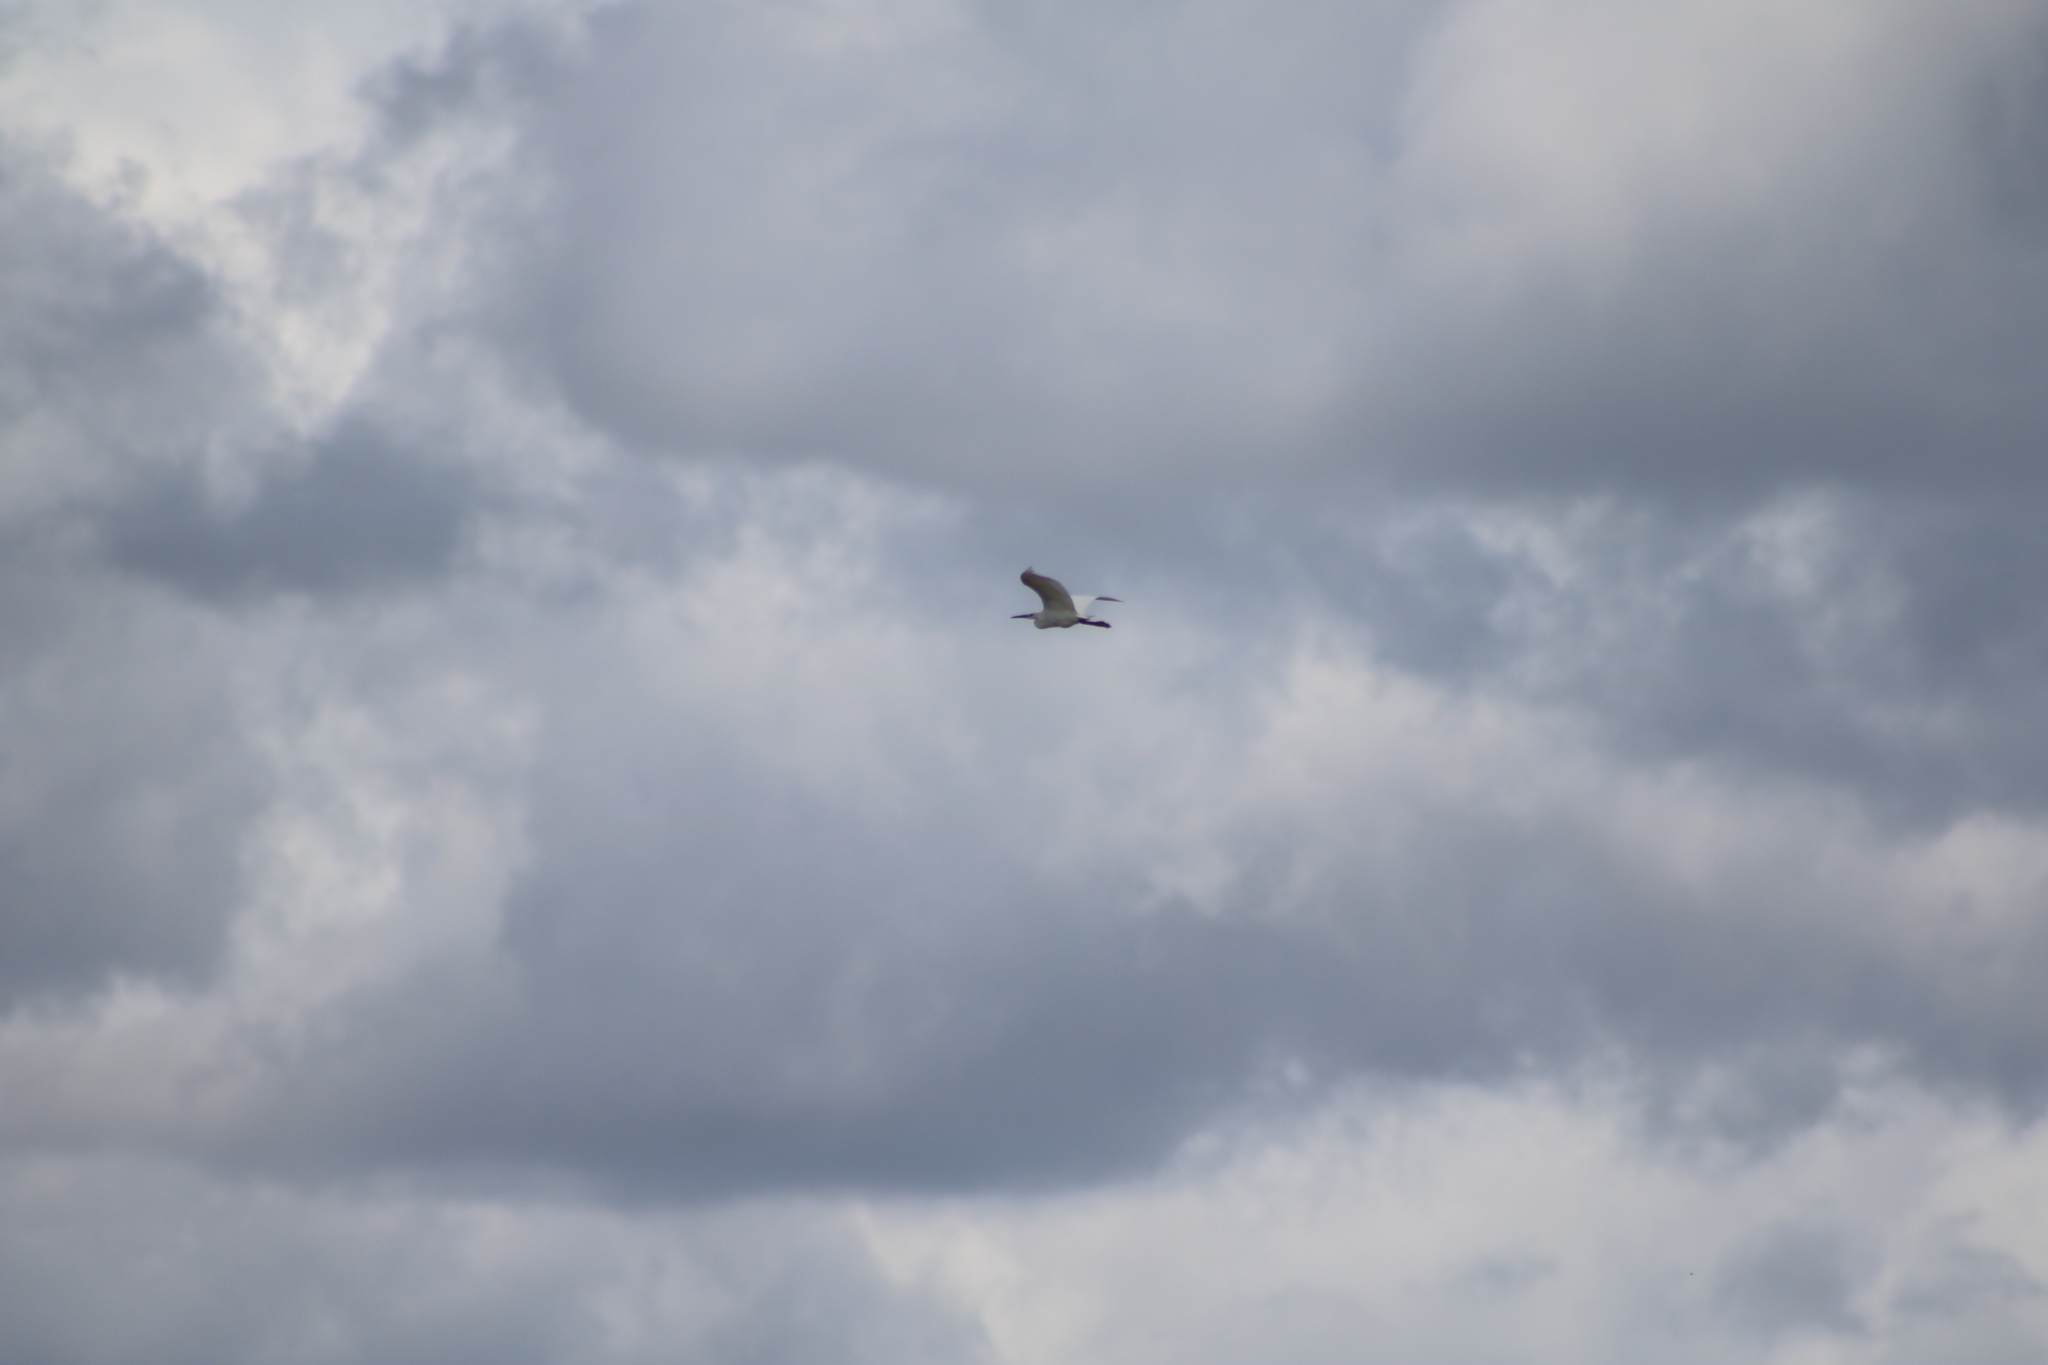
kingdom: Animalia
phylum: Chordata
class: Aves
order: Pelecaniformes
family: Ardeidae
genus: Egretta
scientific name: Egretta garzetta
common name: Little egret
